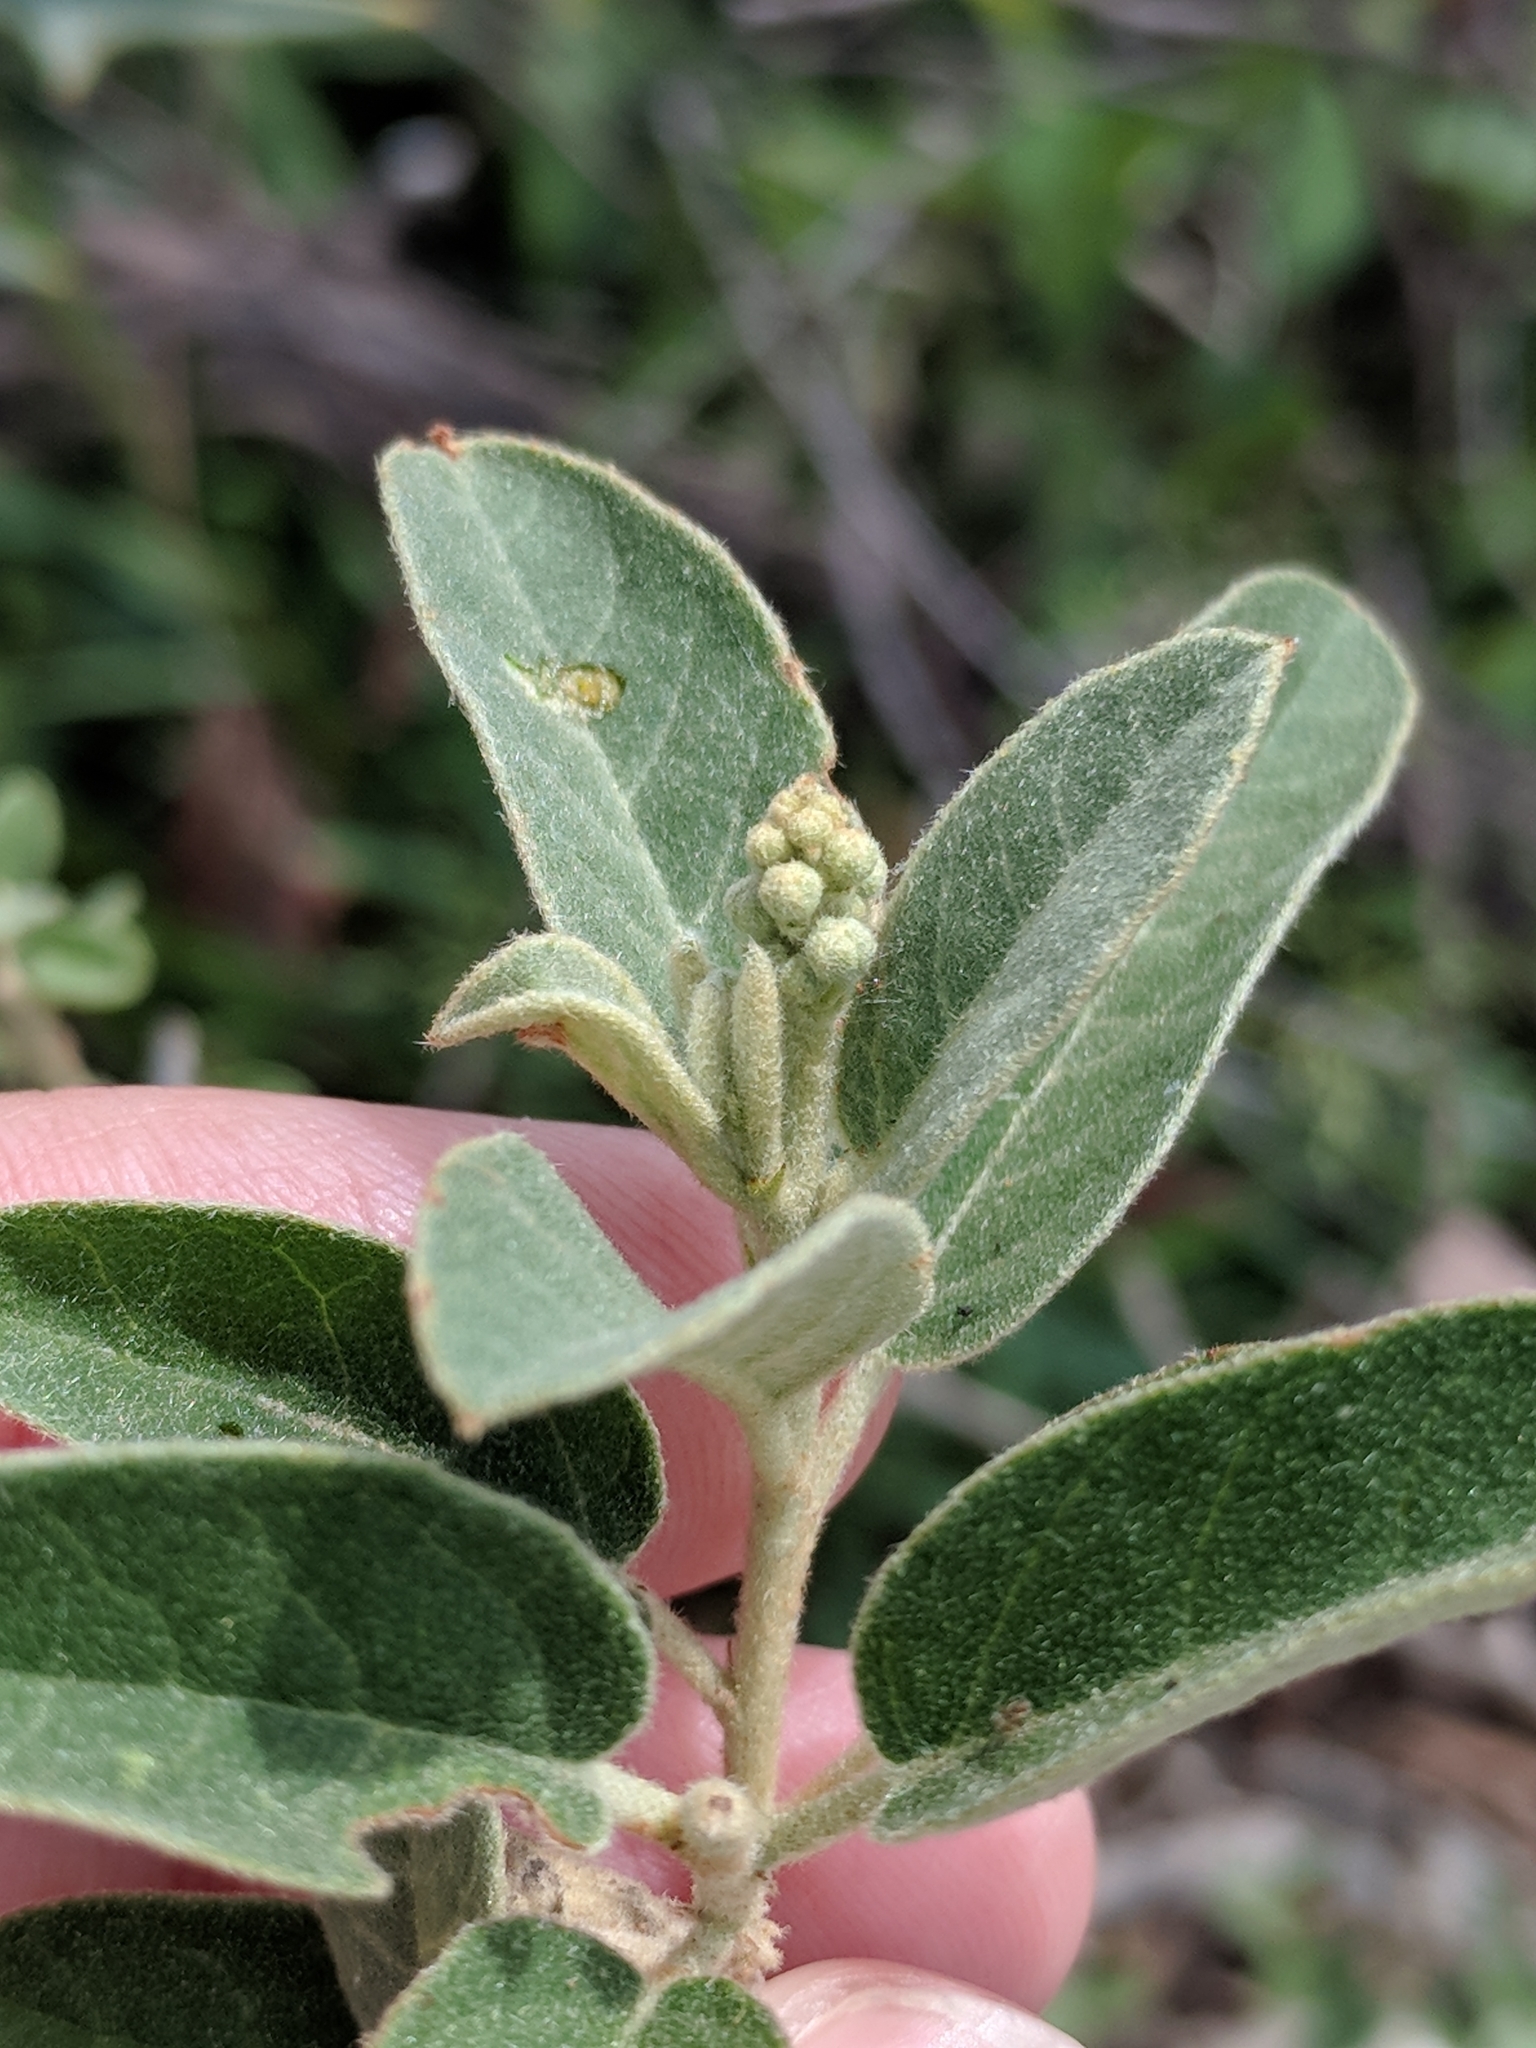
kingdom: Plantae
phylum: Tracheophyta
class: Magnoliopsida
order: Malpighiales
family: Euphorbiaceae
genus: Croton
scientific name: Croton incanus
